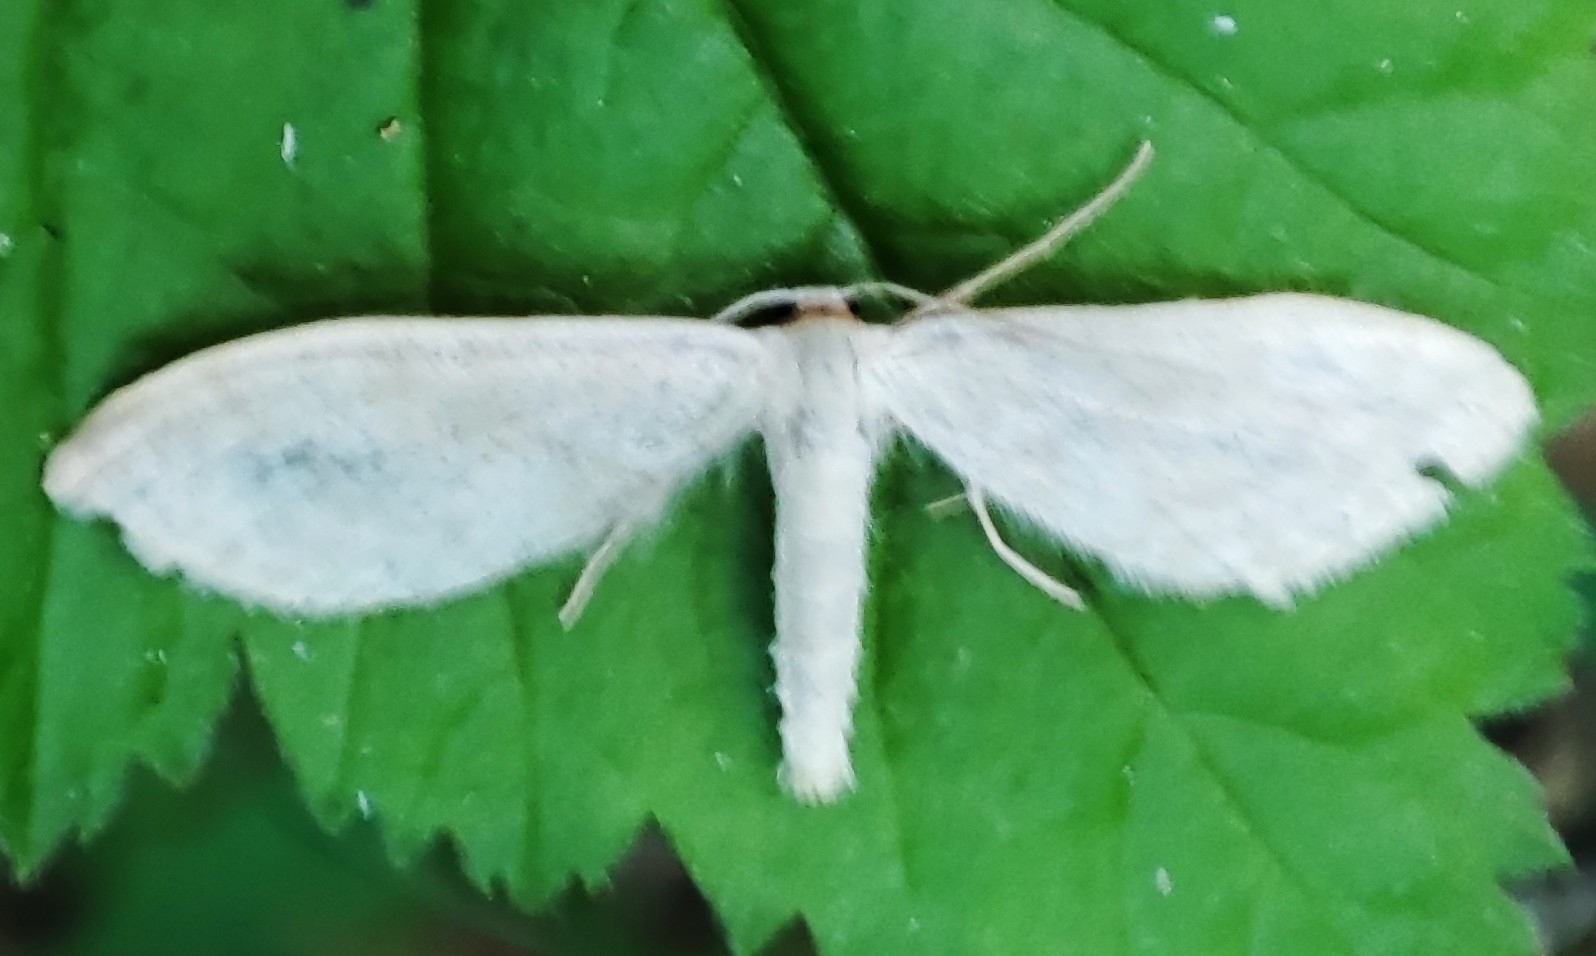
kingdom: Animalia
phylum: Arthropoda
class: Insecta
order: Lepidoptera
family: Geometridae
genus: Scopula
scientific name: Scopula floslactata
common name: Cream wave
